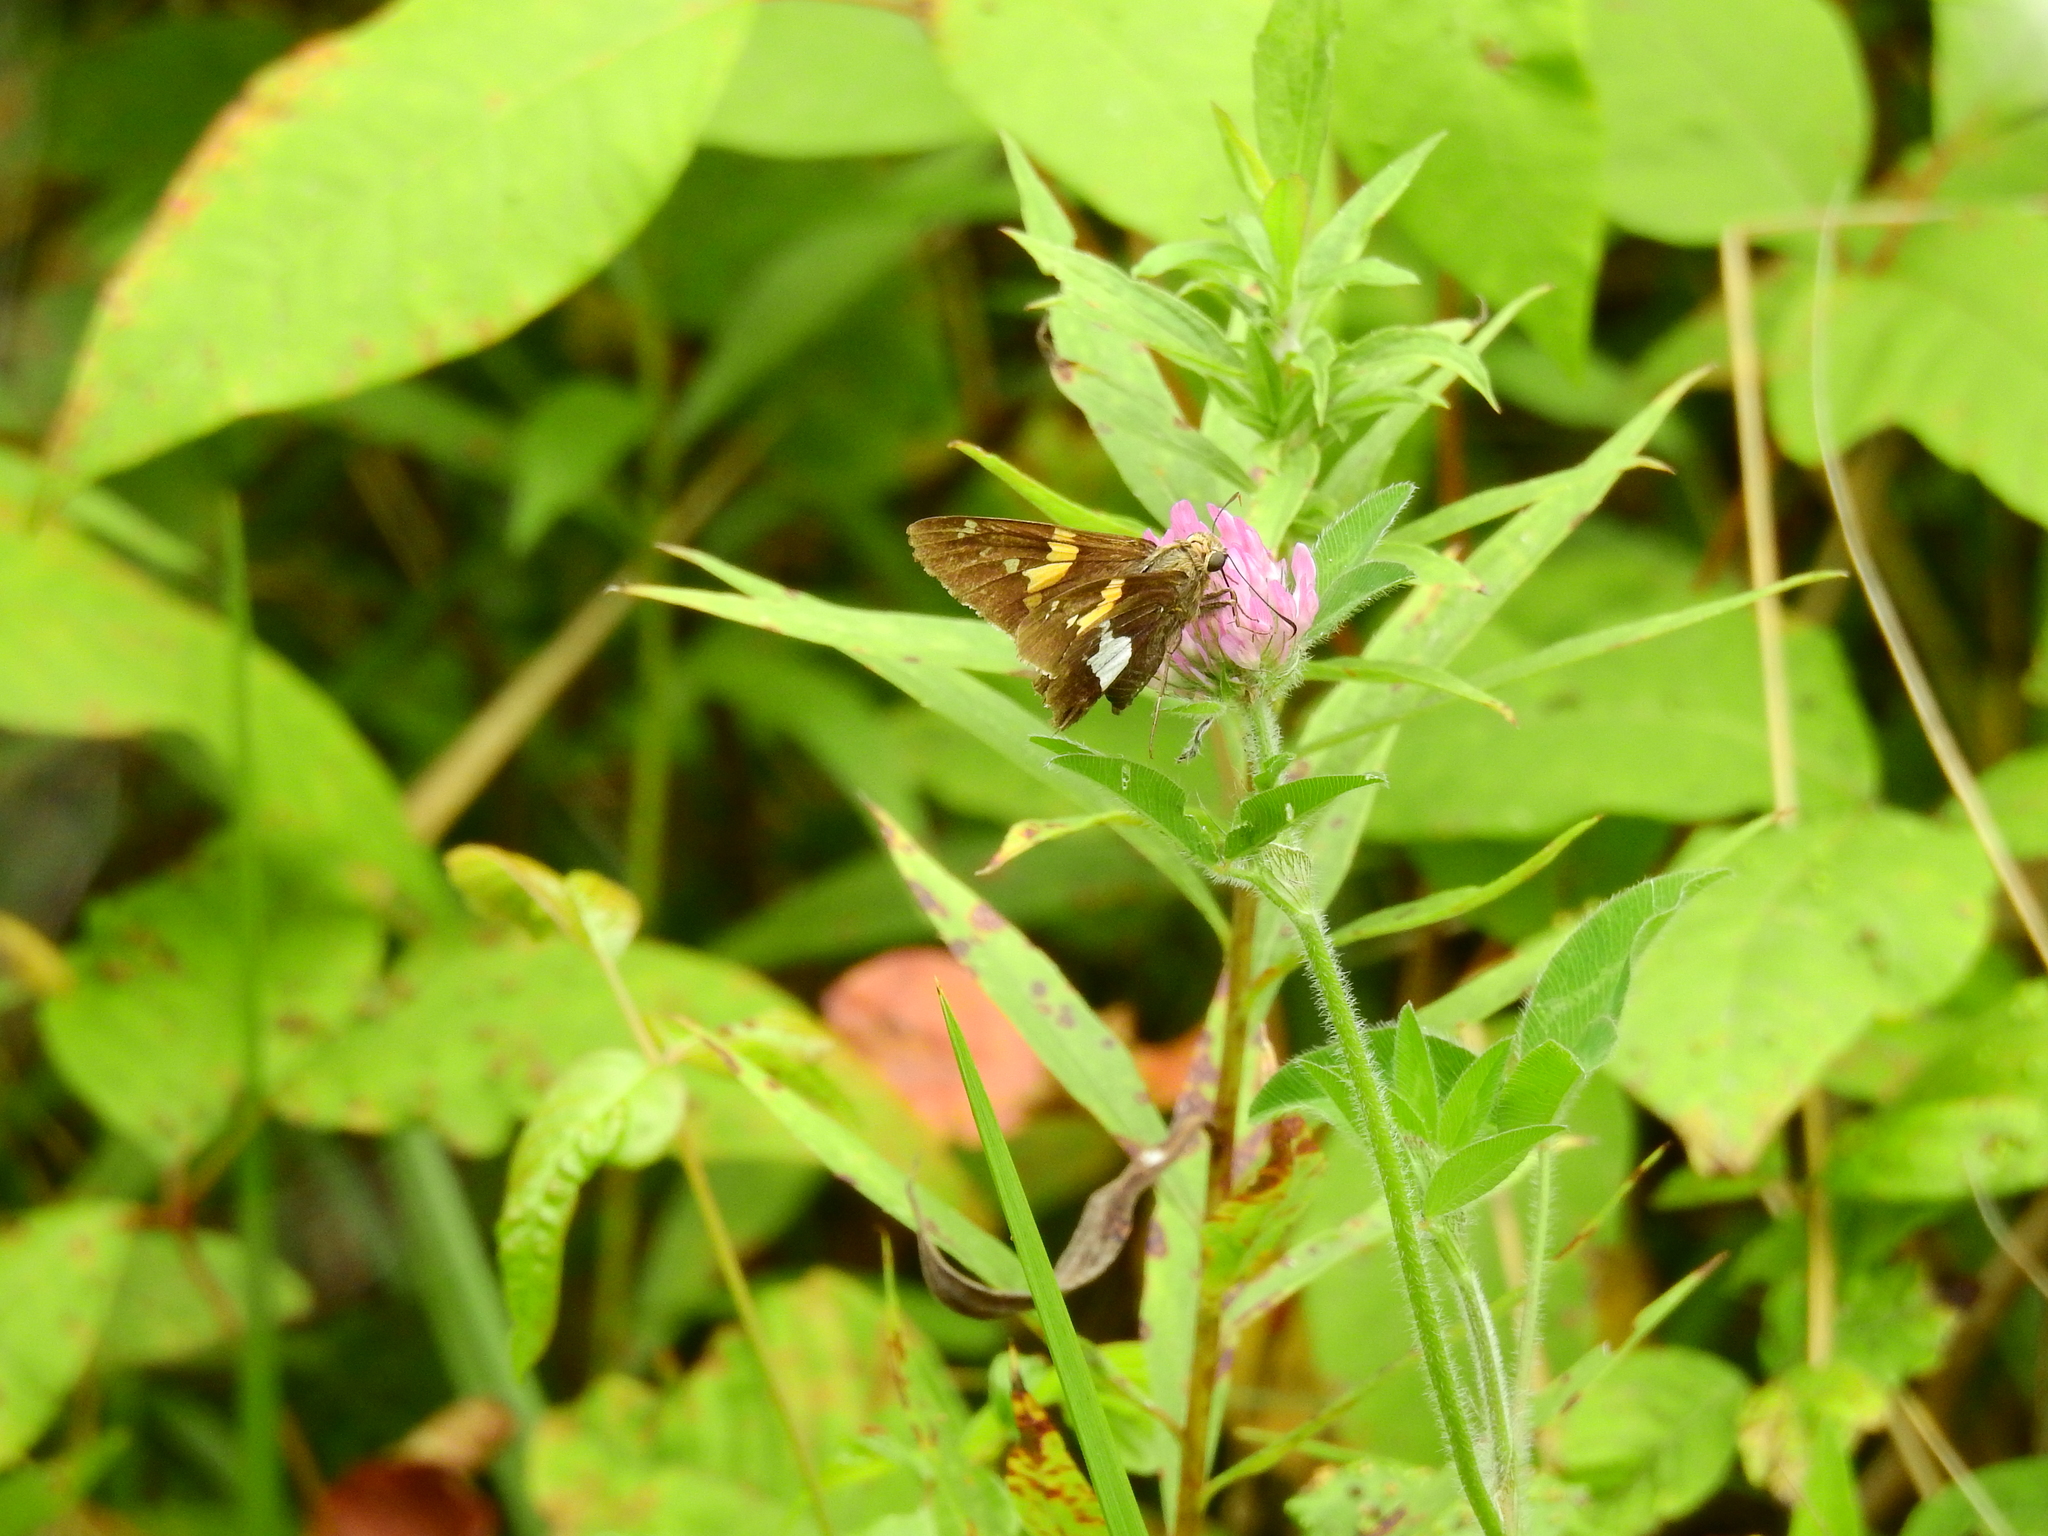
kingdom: Animalia
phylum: Arthropoda
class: Insecta
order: Lepidoptera
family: Hesperiidae
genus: Epargyreus
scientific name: Epargyreus clarus
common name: Silver-spotted skipper
